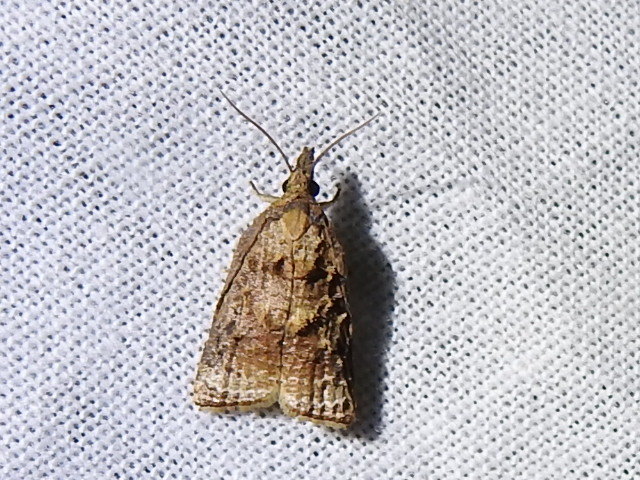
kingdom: Animalia
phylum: Arthropoda
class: Insecta
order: Lepidoptera
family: Tortricidae
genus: Platynota
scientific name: Platynota flavedana
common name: Black-shaded platynota moth
